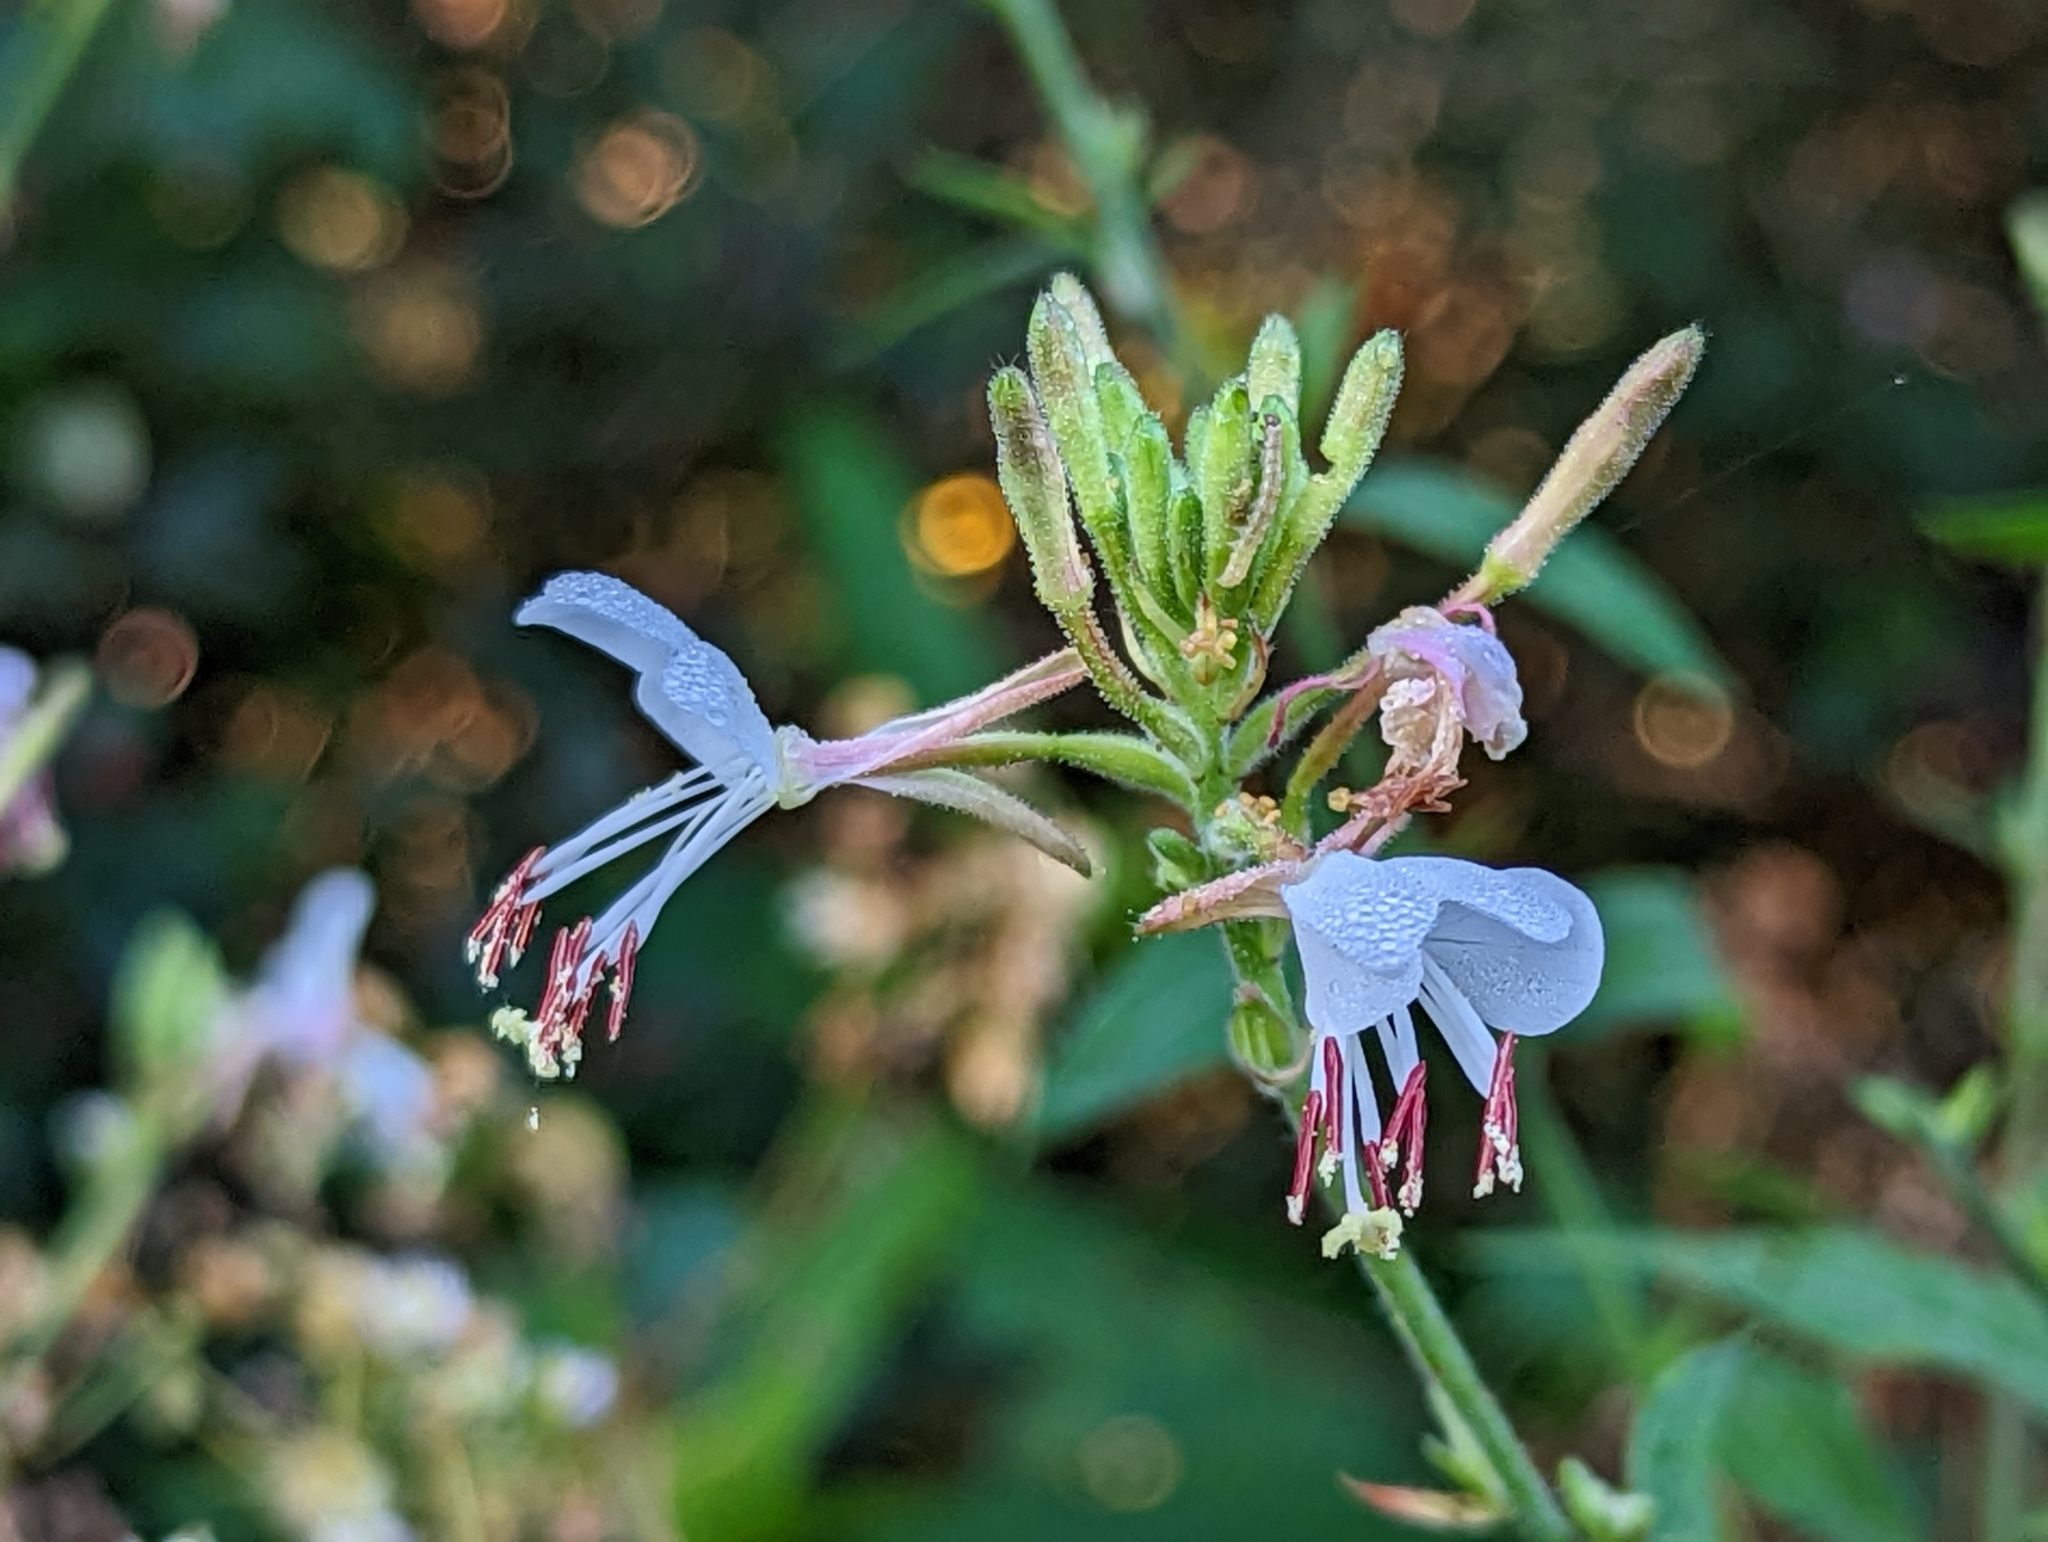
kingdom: Plantae
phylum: Tracheophyta
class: Magnoliopsida
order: Myrtales
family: Onagraceae
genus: Oenothera
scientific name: Oenothera gaura
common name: Biennial beeblossom
